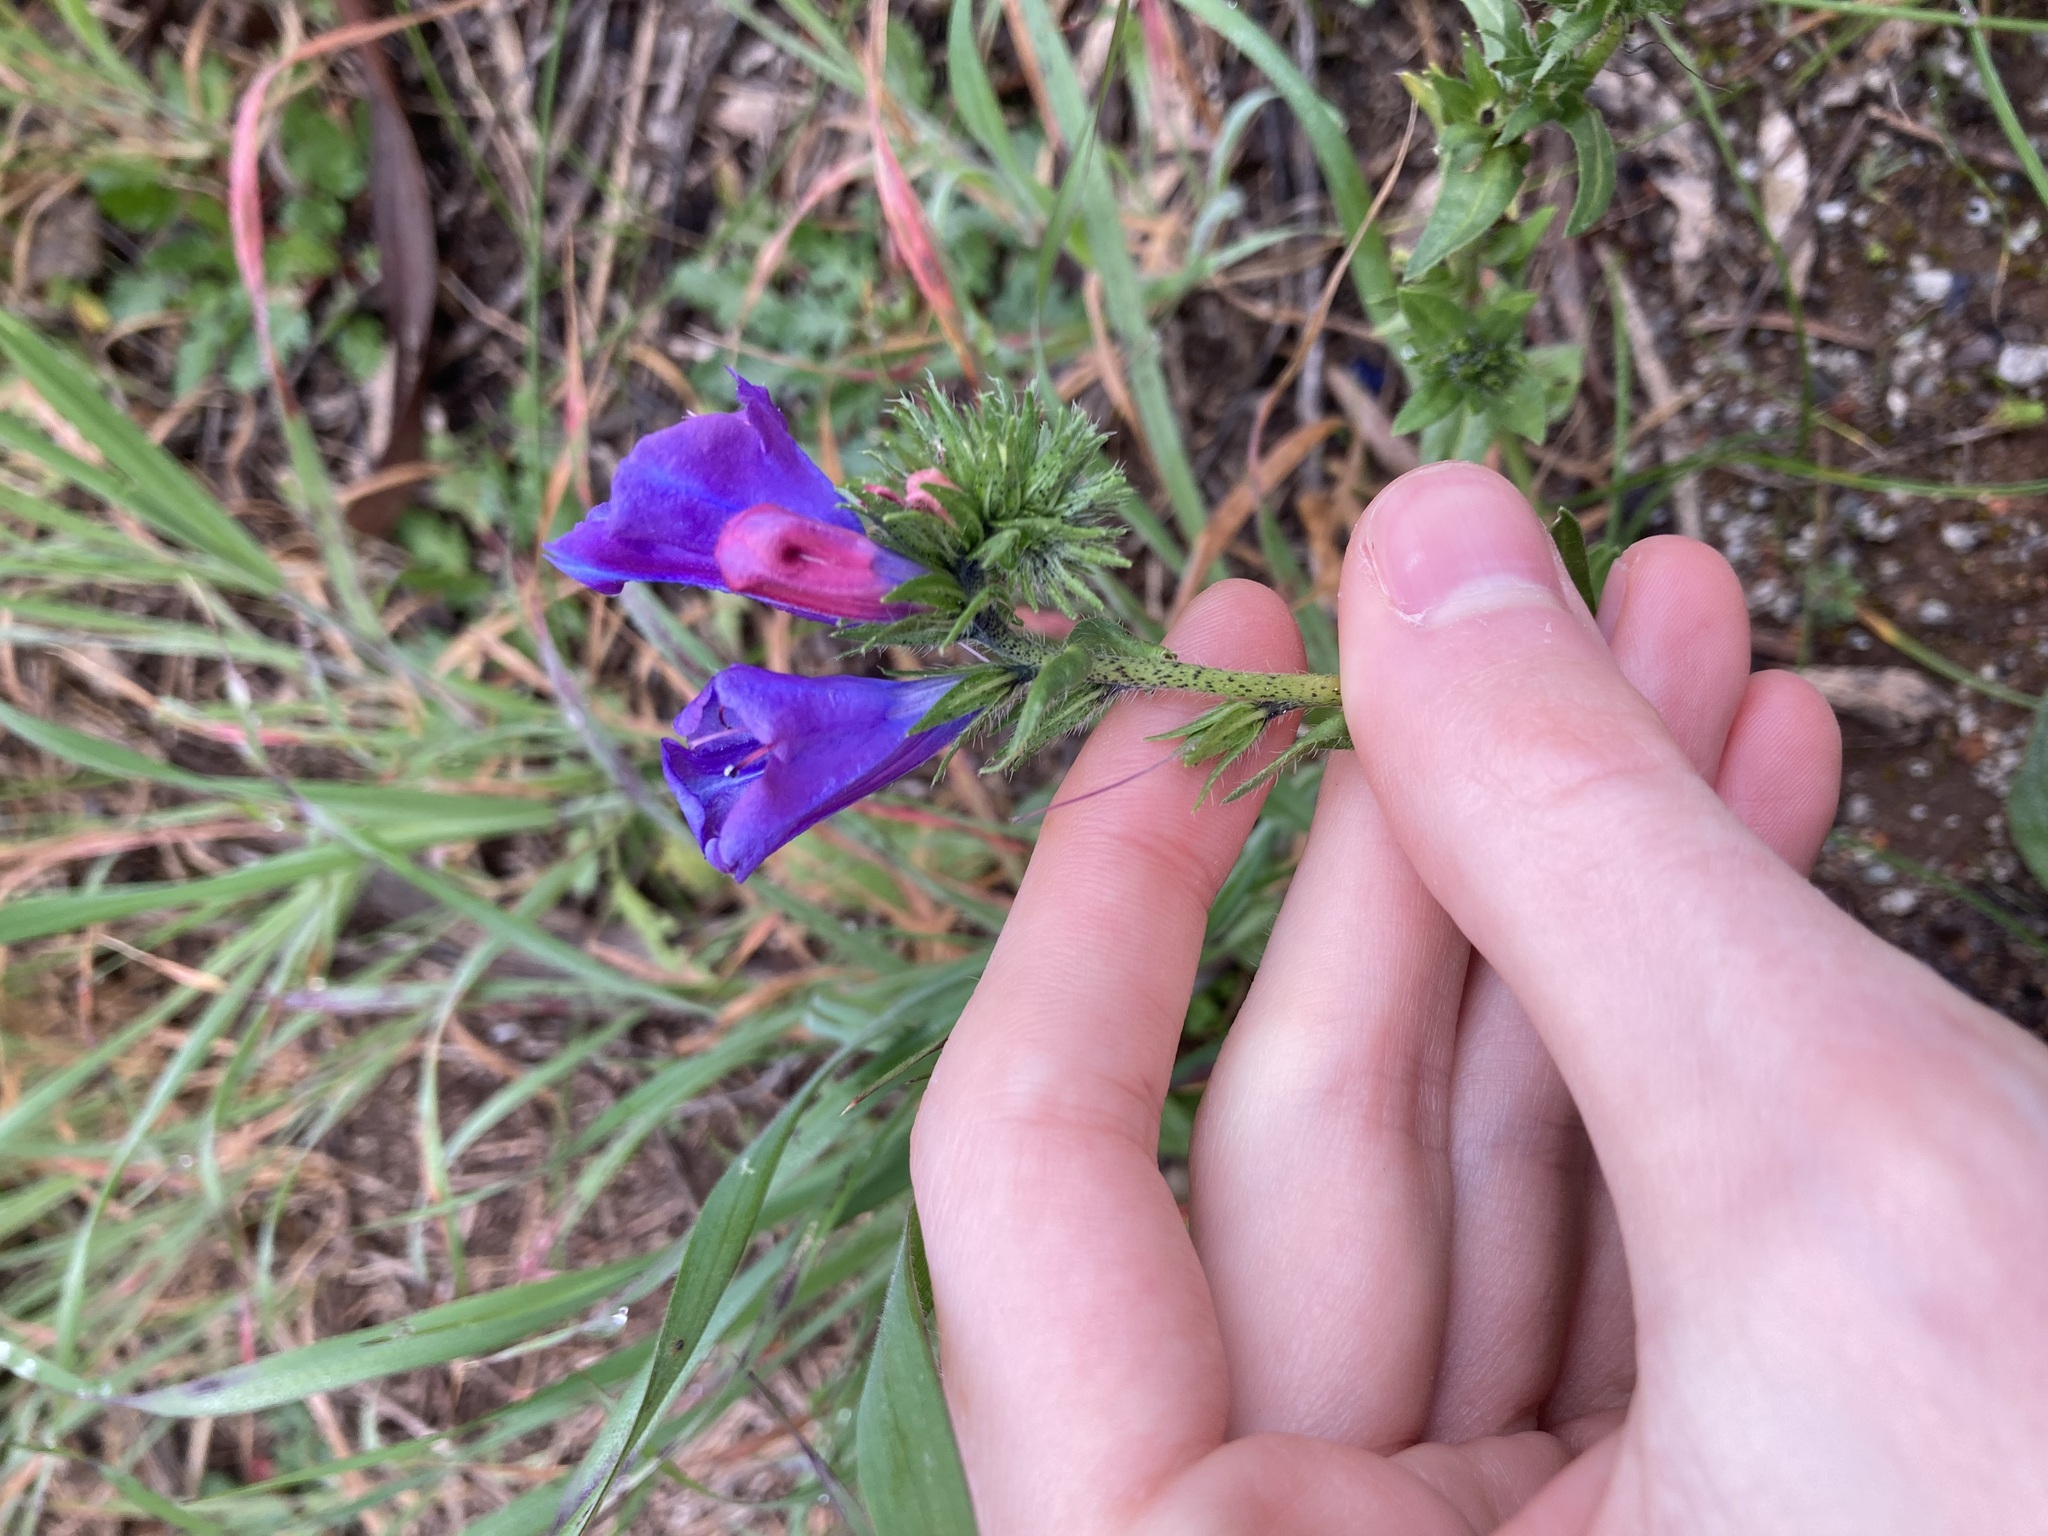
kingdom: Plantae
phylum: Tracheophyta
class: Magnoliopsida
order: Boraginales
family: Boraginaceae
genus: Echium
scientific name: Echium plantagineum
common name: Purple viper's-bugloss
